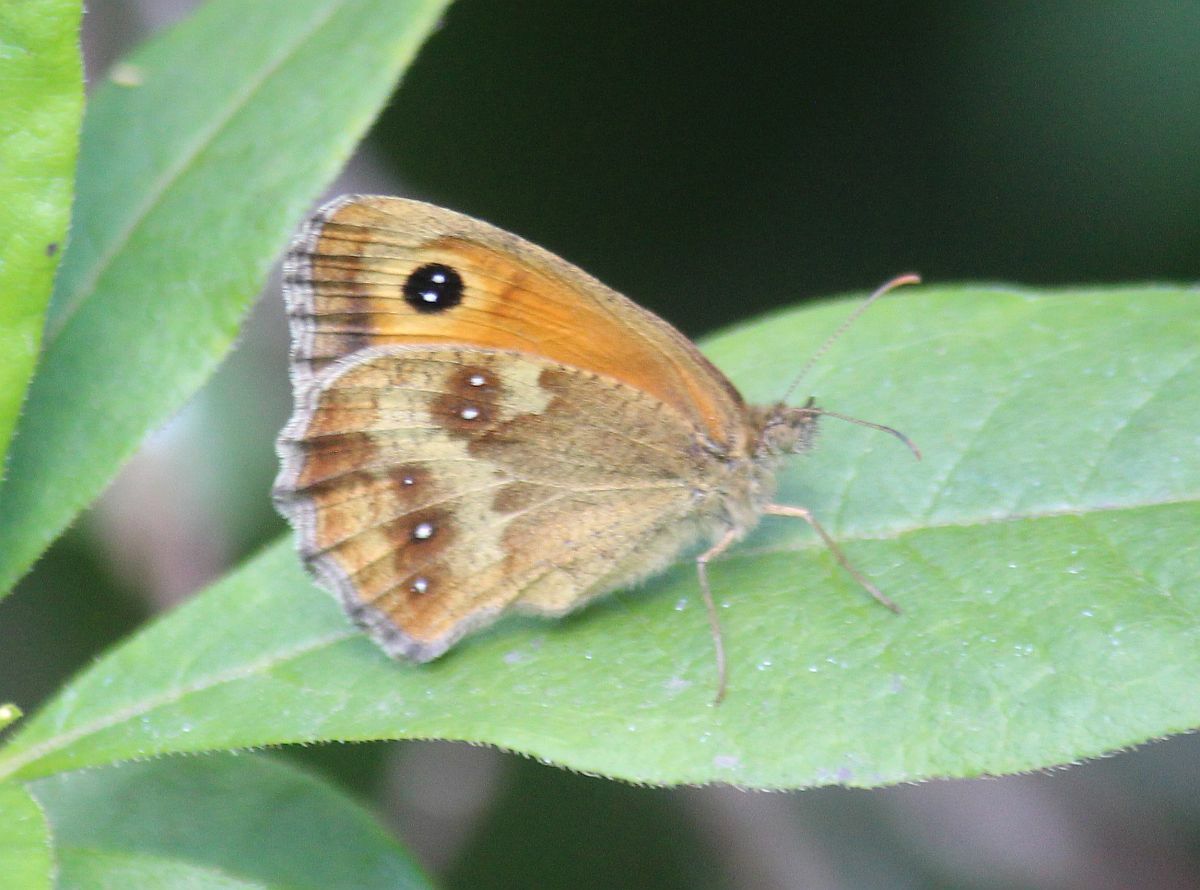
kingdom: Animalia
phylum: Arthropoda
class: Insecta
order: Lepidoptera
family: Nymphalidae
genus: Pyronia
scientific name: Pyronia tithonus
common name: Gatekeeper
